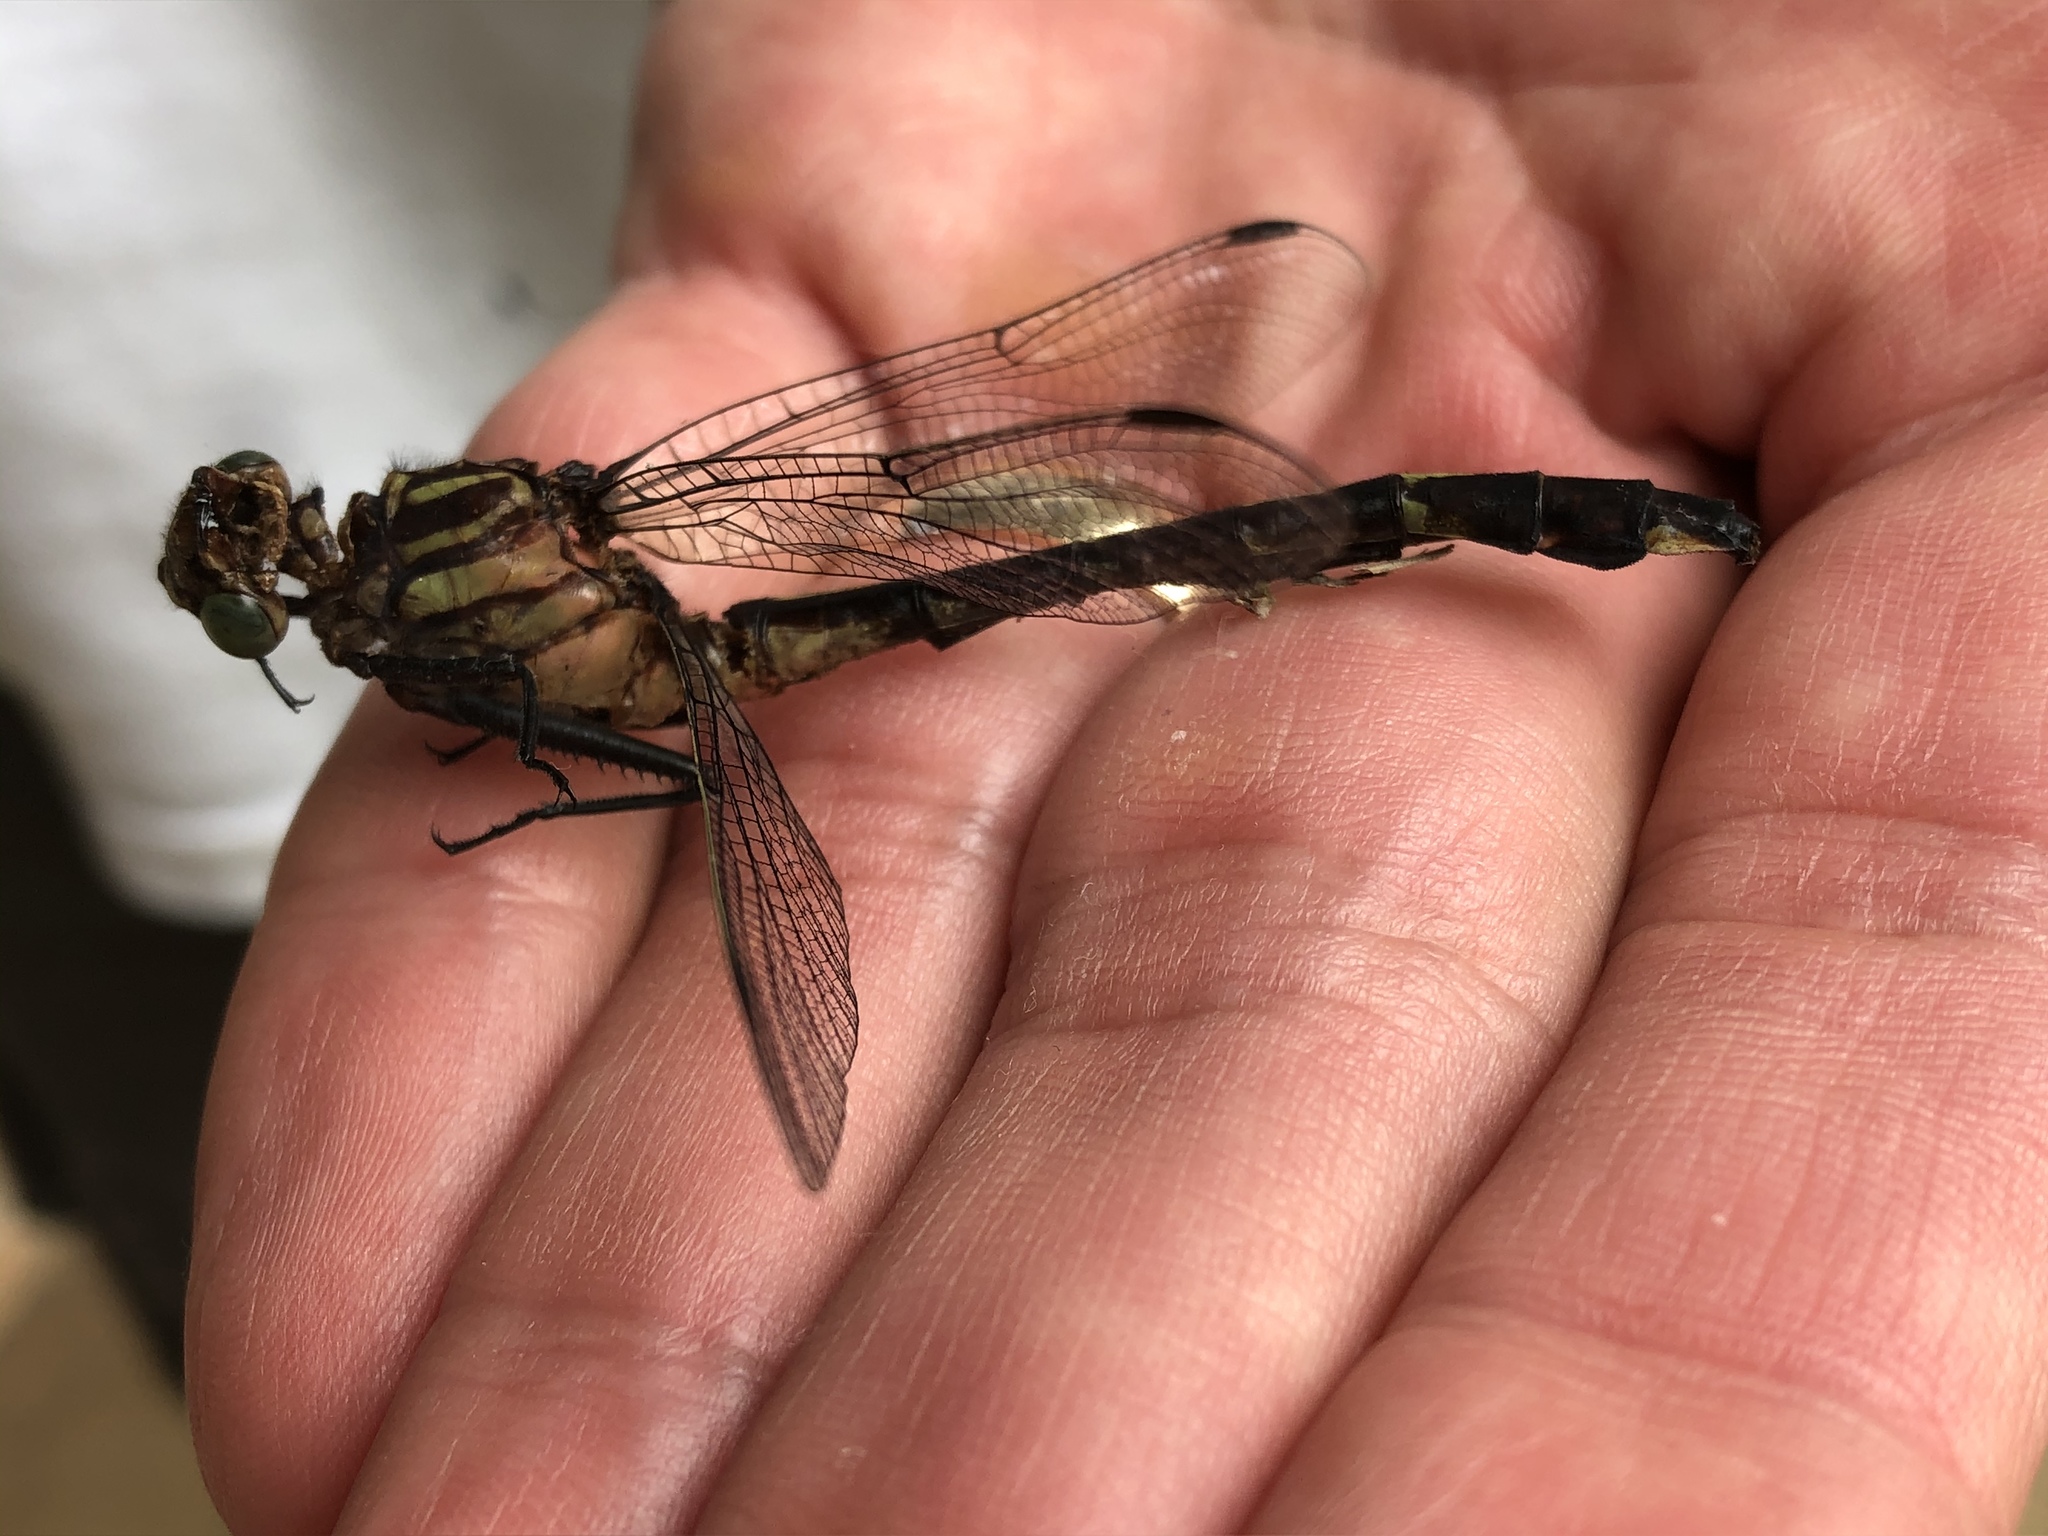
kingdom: Animalia
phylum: Arthropoda
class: Insecta
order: Odonata
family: Gomphidae
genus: Gomphurus
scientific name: Gomphurus vastus
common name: Cobra clubtail
